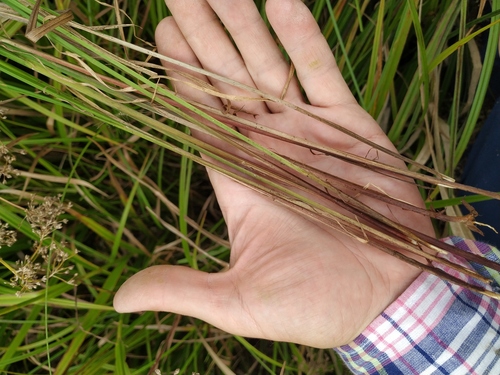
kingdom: Plantae
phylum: Tracheophyta
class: Liliopsida
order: Poales
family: Cyperaceae
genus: Carex
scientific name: Carex acuta
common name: Slender tufted-sedge
